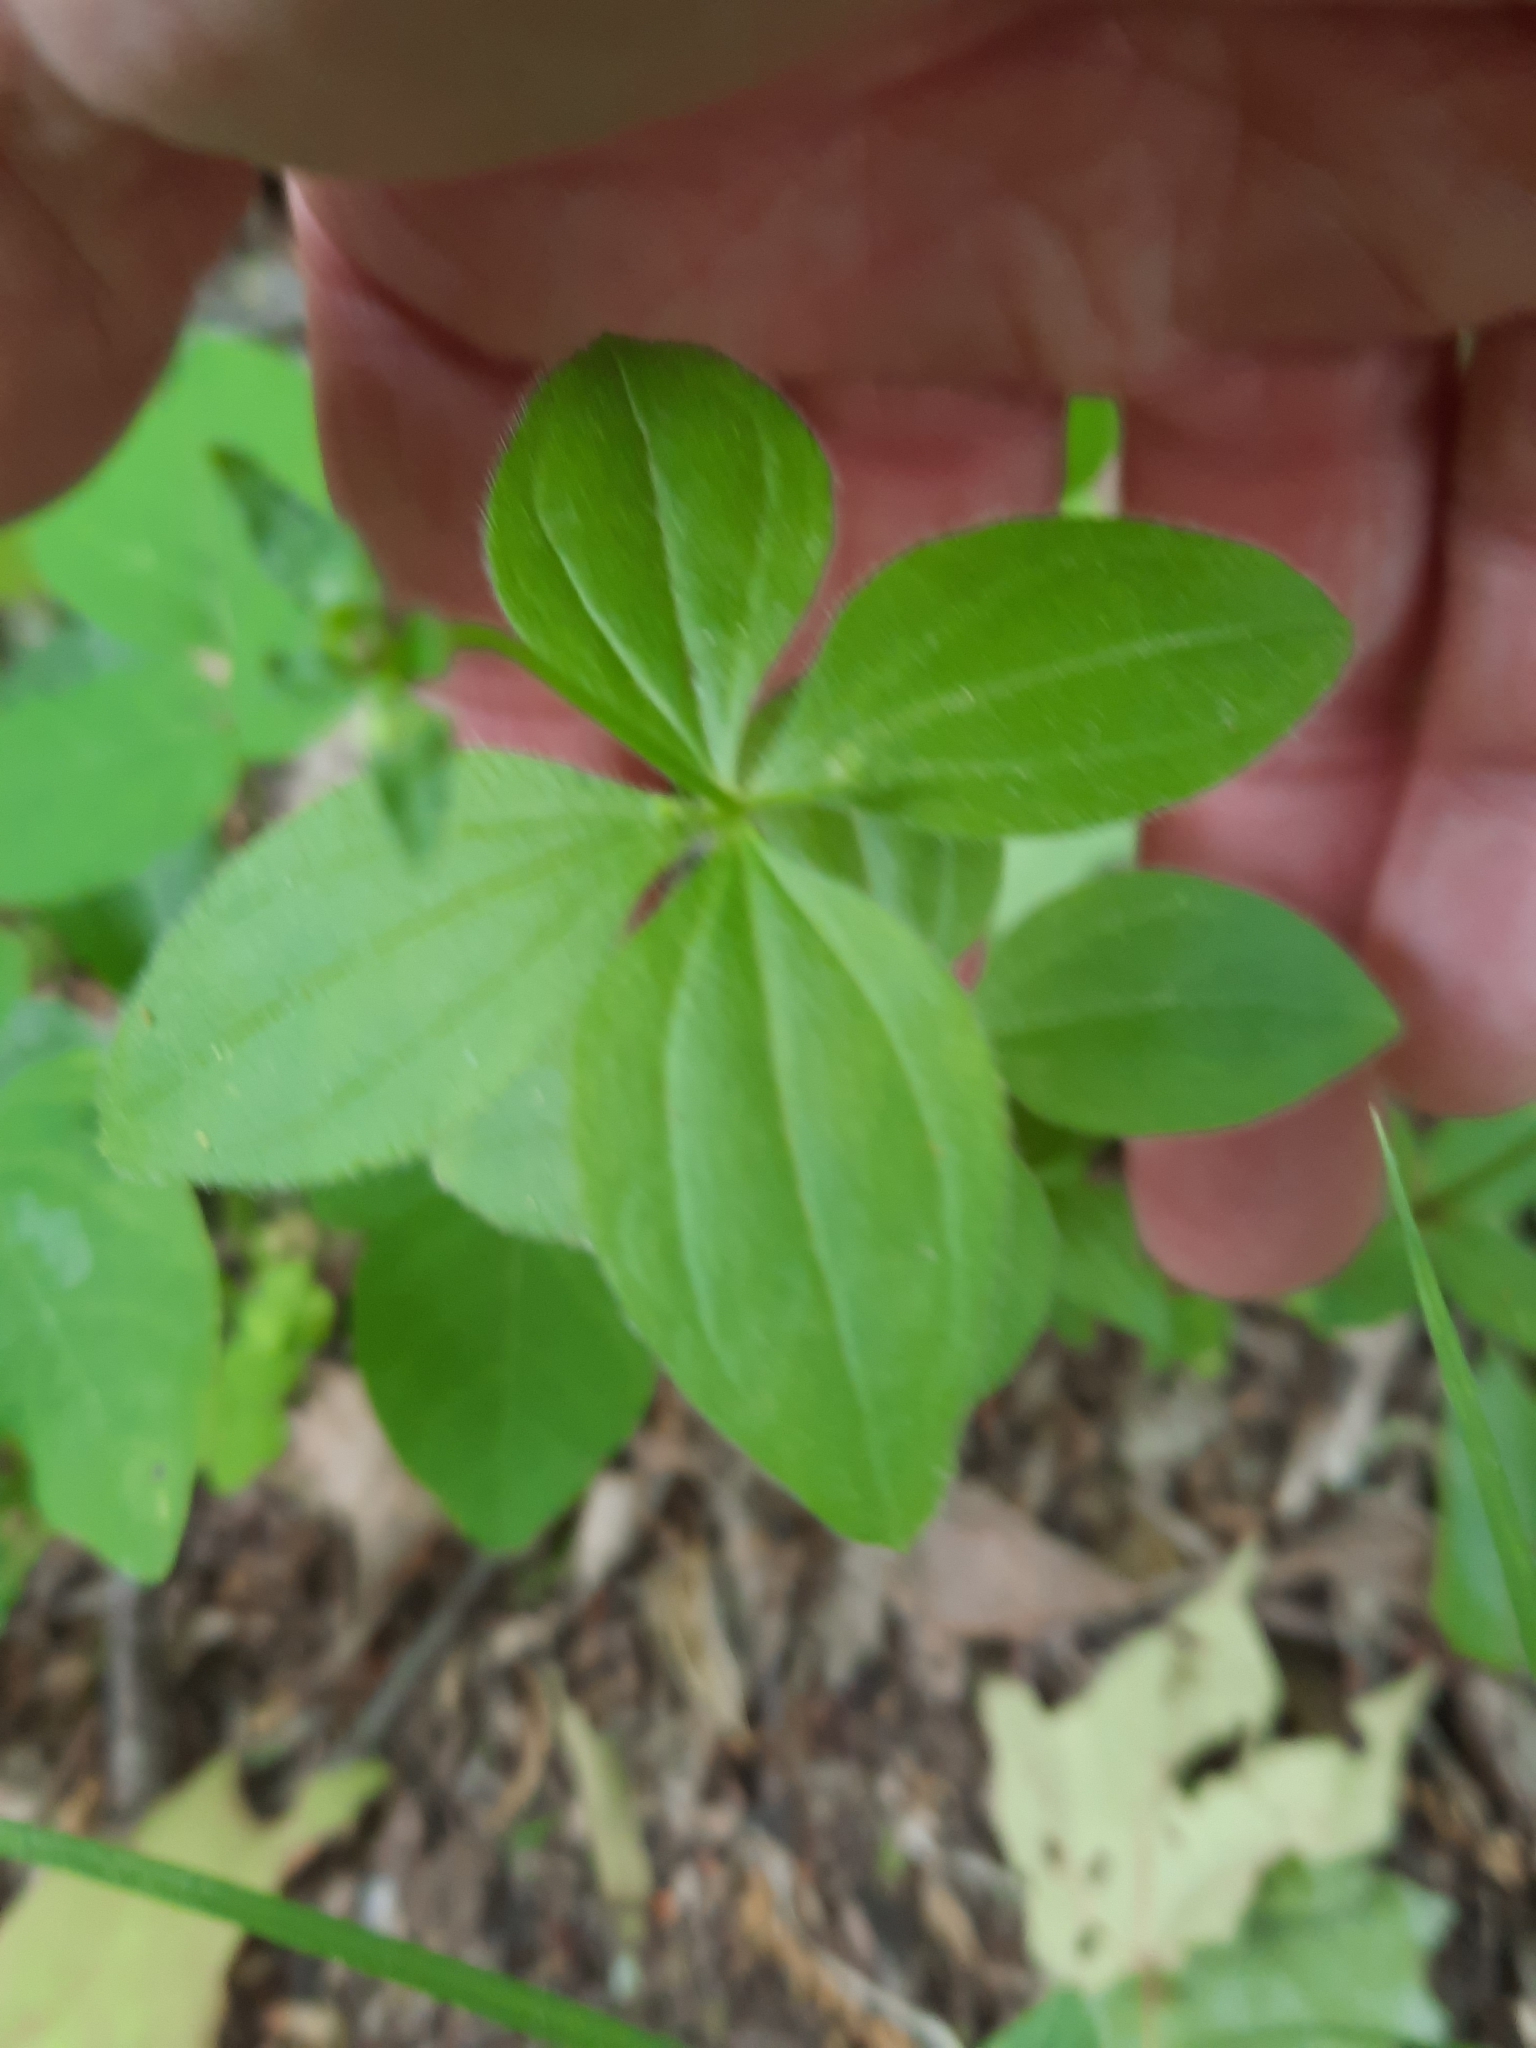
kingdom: Plantae
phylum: Tracheophyta
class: Magnoliopsida
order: Gentianales
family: Rubiaceae
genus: Galium
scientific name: Galium circaezans
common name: Forest bedstraw
